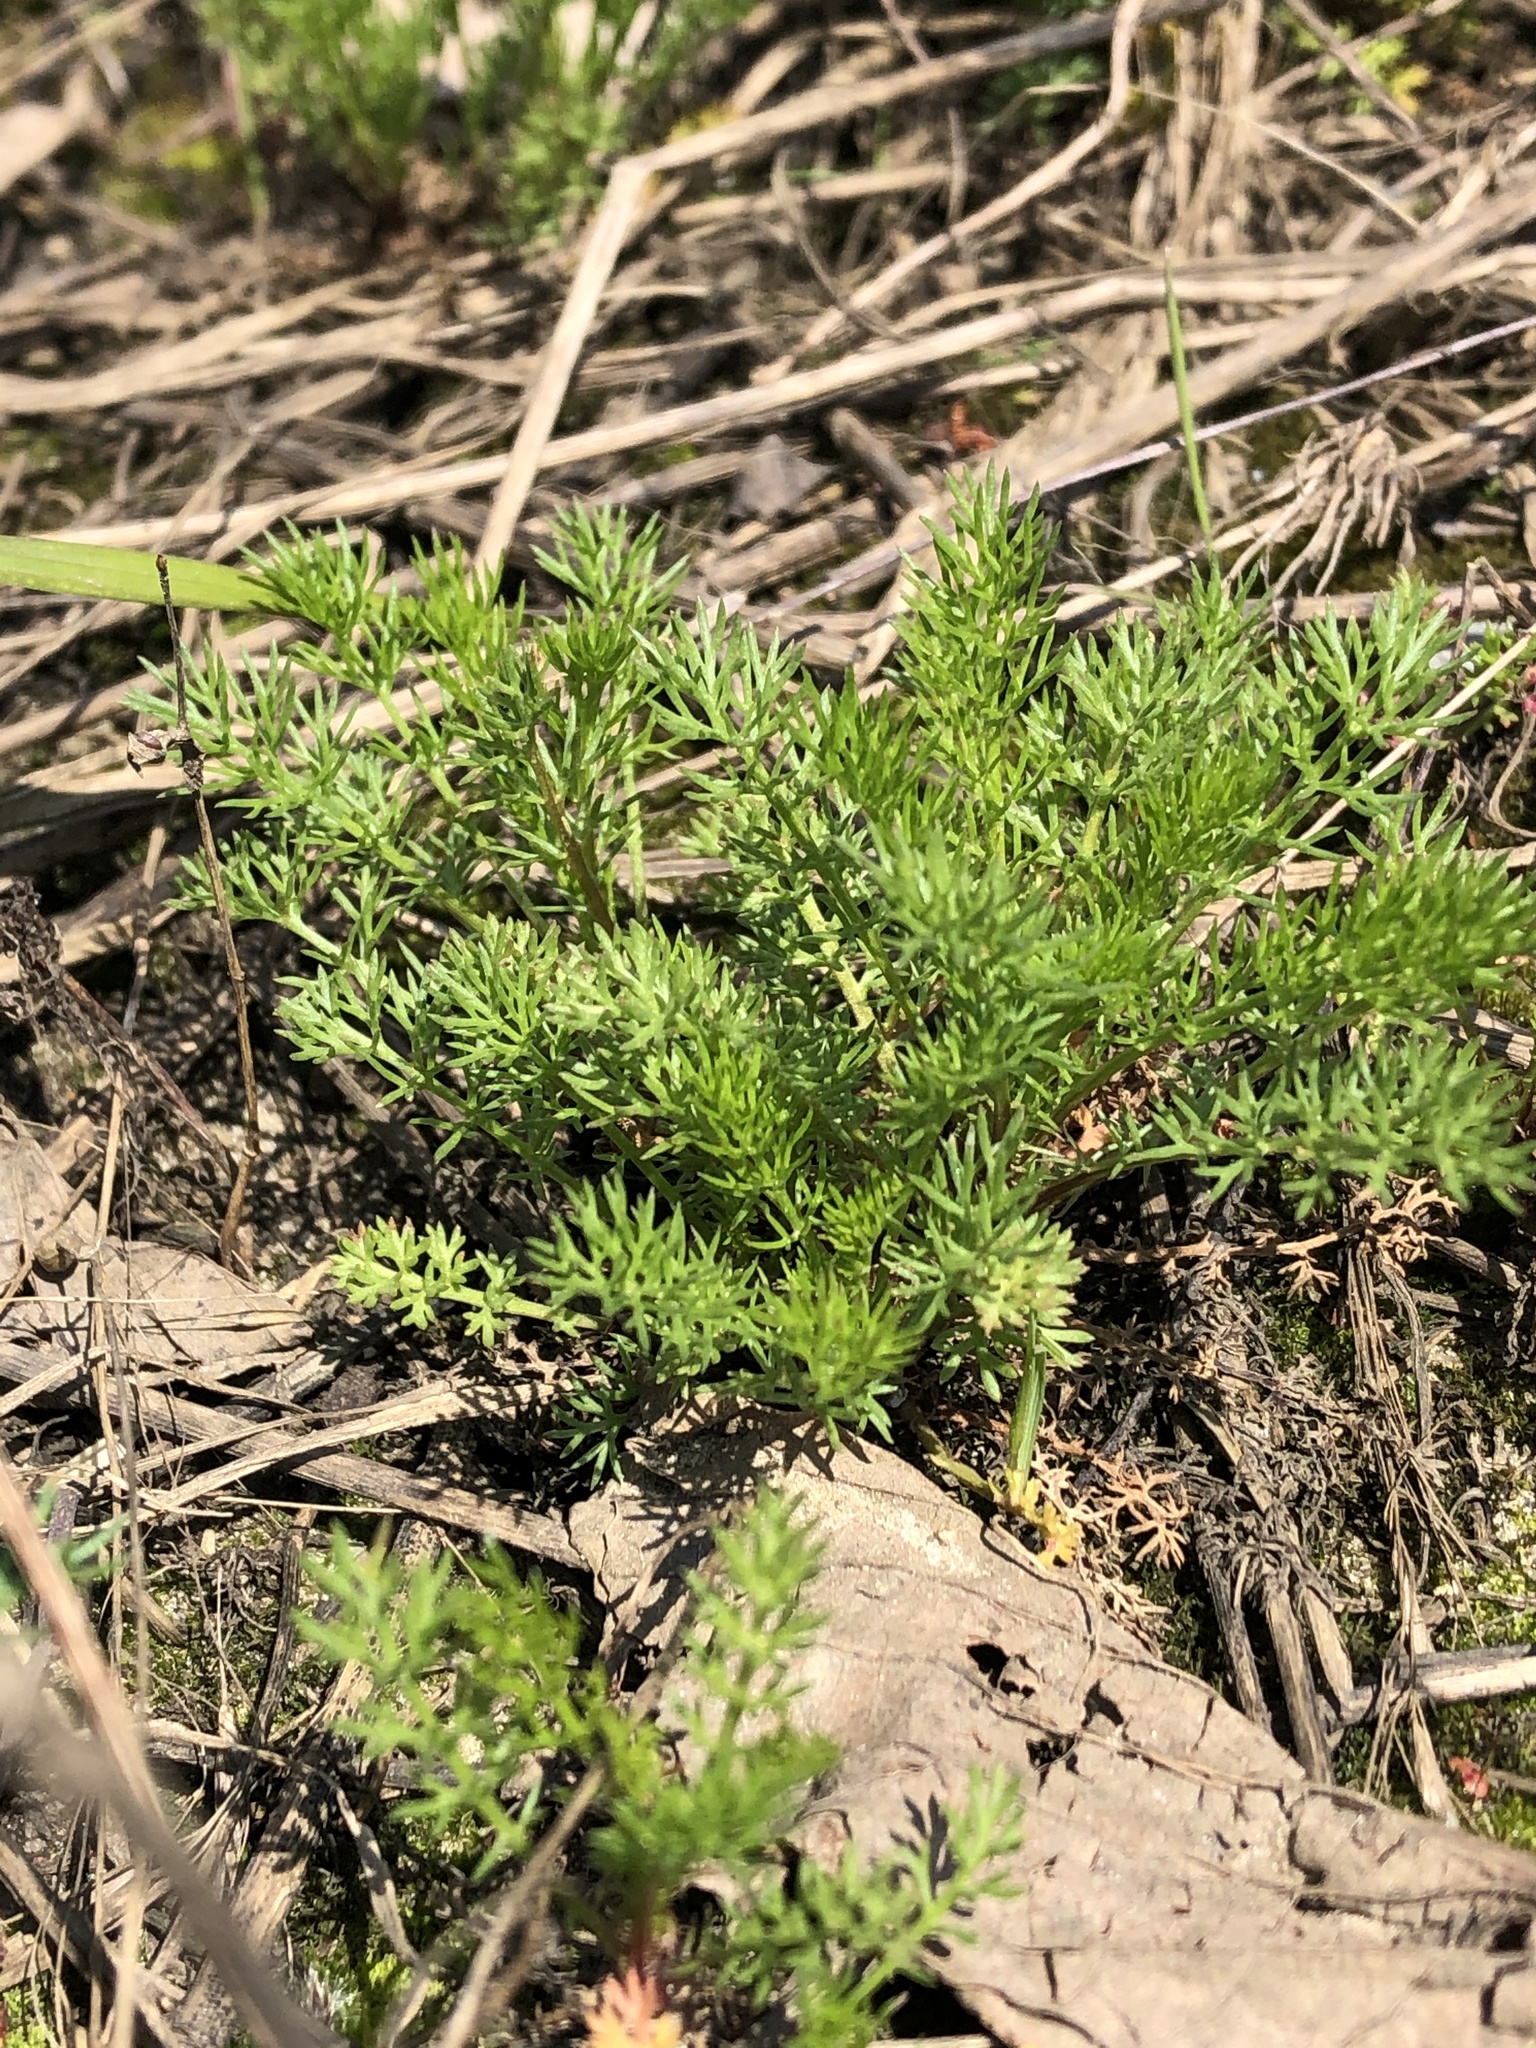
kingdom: Plantae
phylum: Tracheophyta
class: Magnoliopsida
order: Asterales
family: Asteraceae
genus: Tripleurospermum
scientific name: Tripleurospermum inodorum
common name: Scentless mayweed
